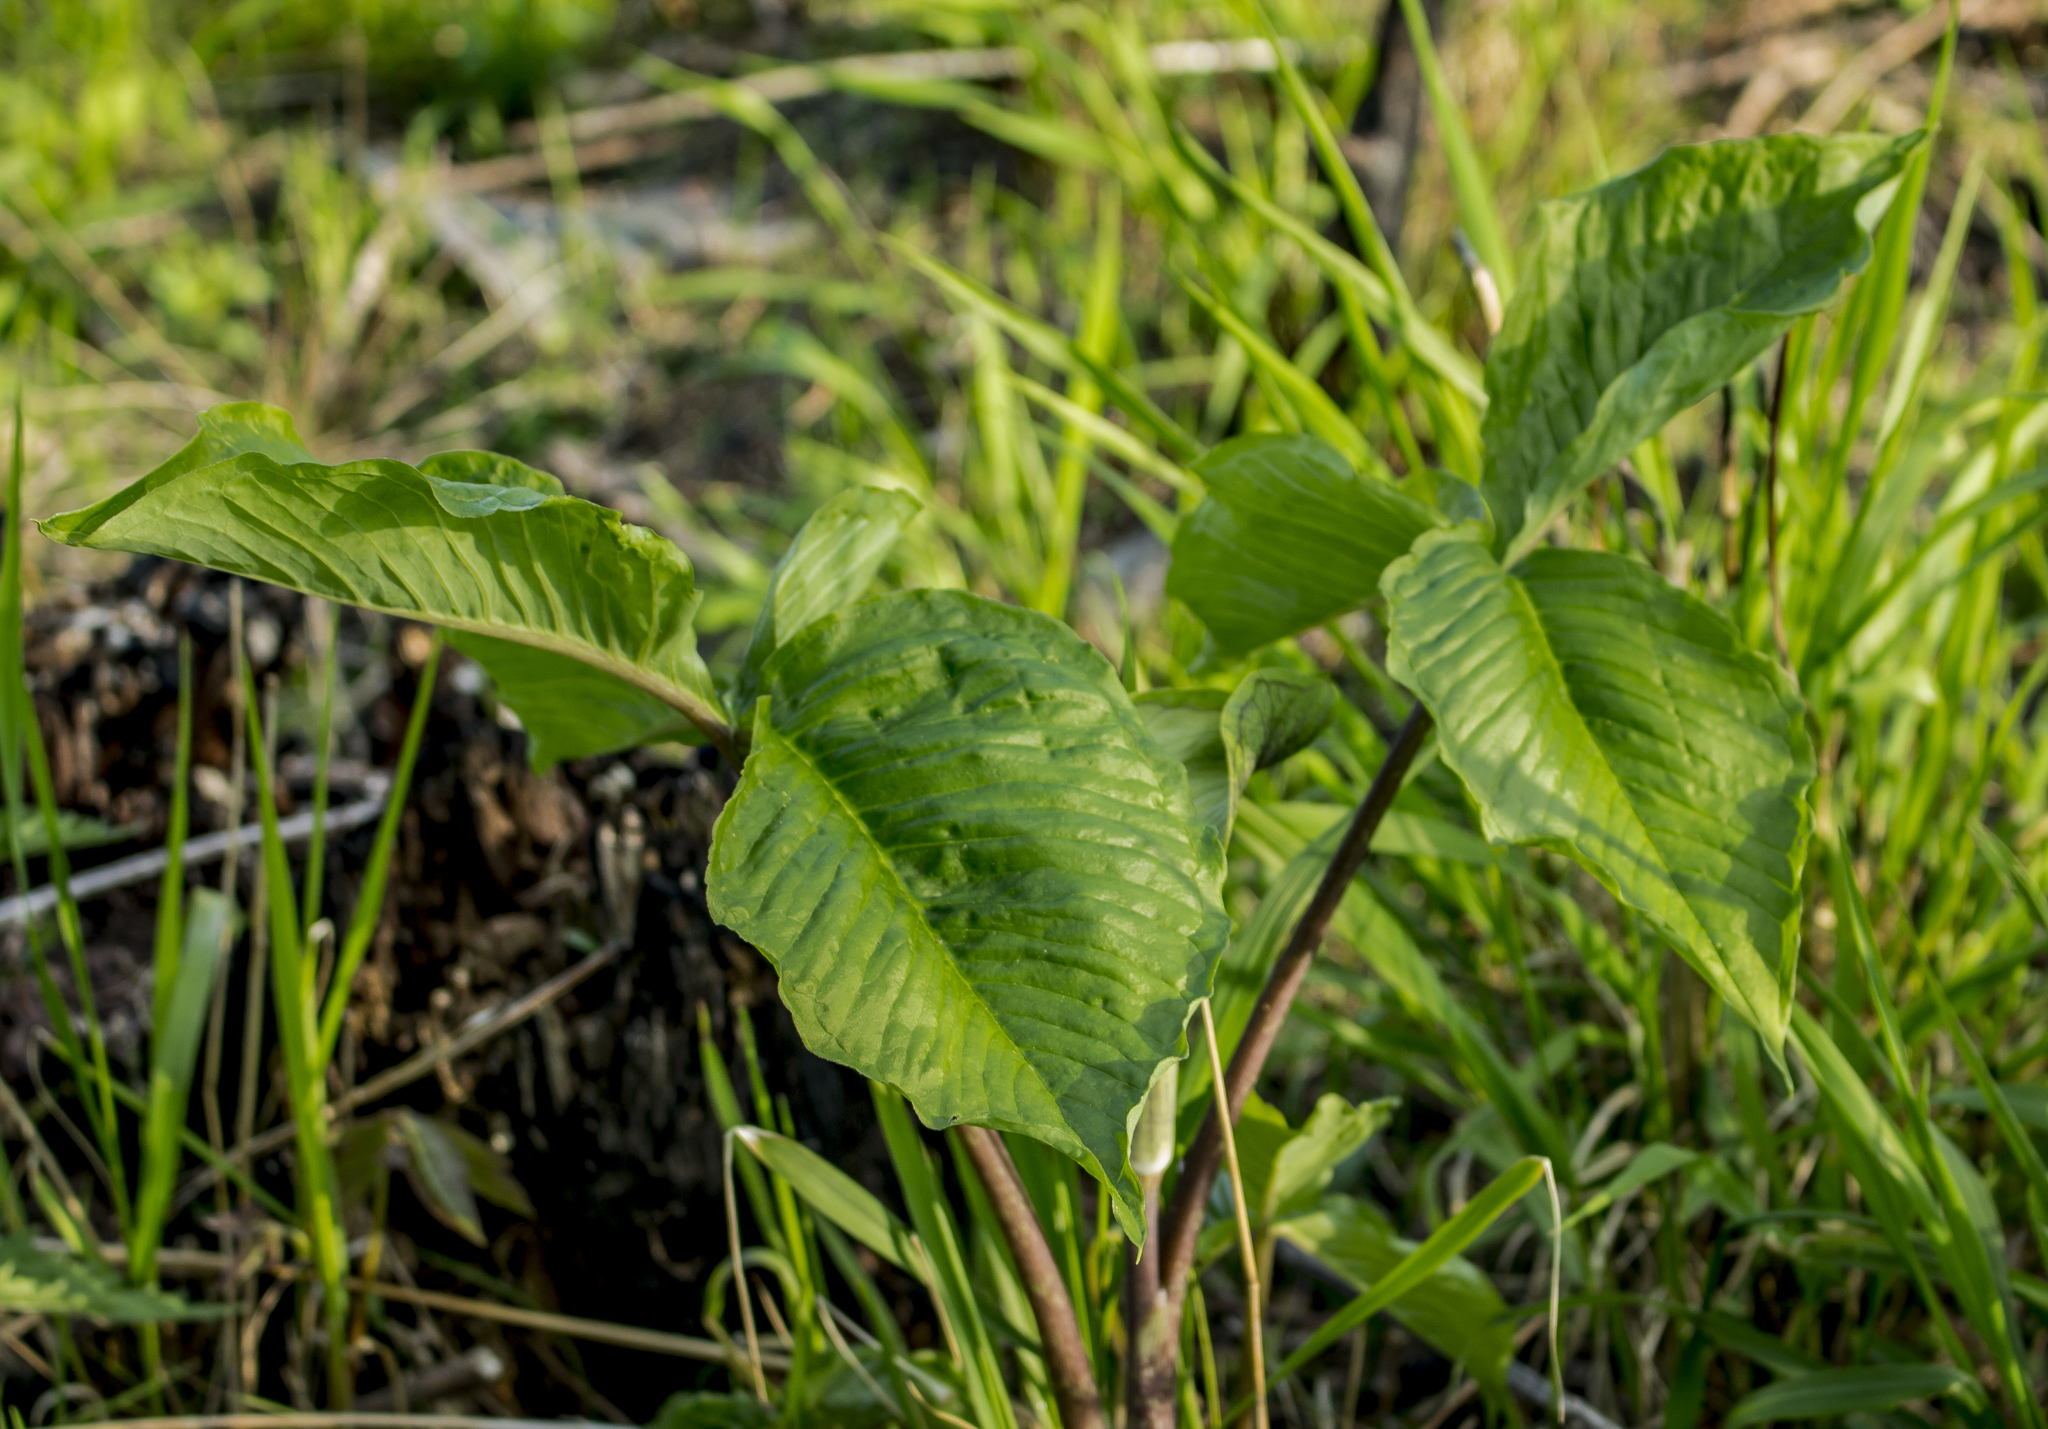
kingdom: Plantae
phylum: Tracheophyta
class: Liliopsida
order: Alismatales
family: Araceae
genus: Arisaema
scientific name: Arisaema triphyllum
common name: Jack-in-the-pulpit
